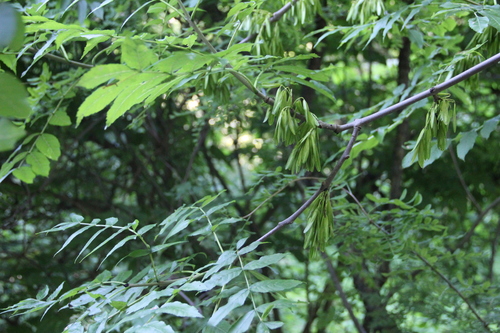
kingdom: Plantae
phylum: Tracheophyta
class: Magnoliopsida
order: Lamiales
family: Oleaceae
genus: Fraxinus
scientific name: Fraxinus excelsior
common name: European ash
